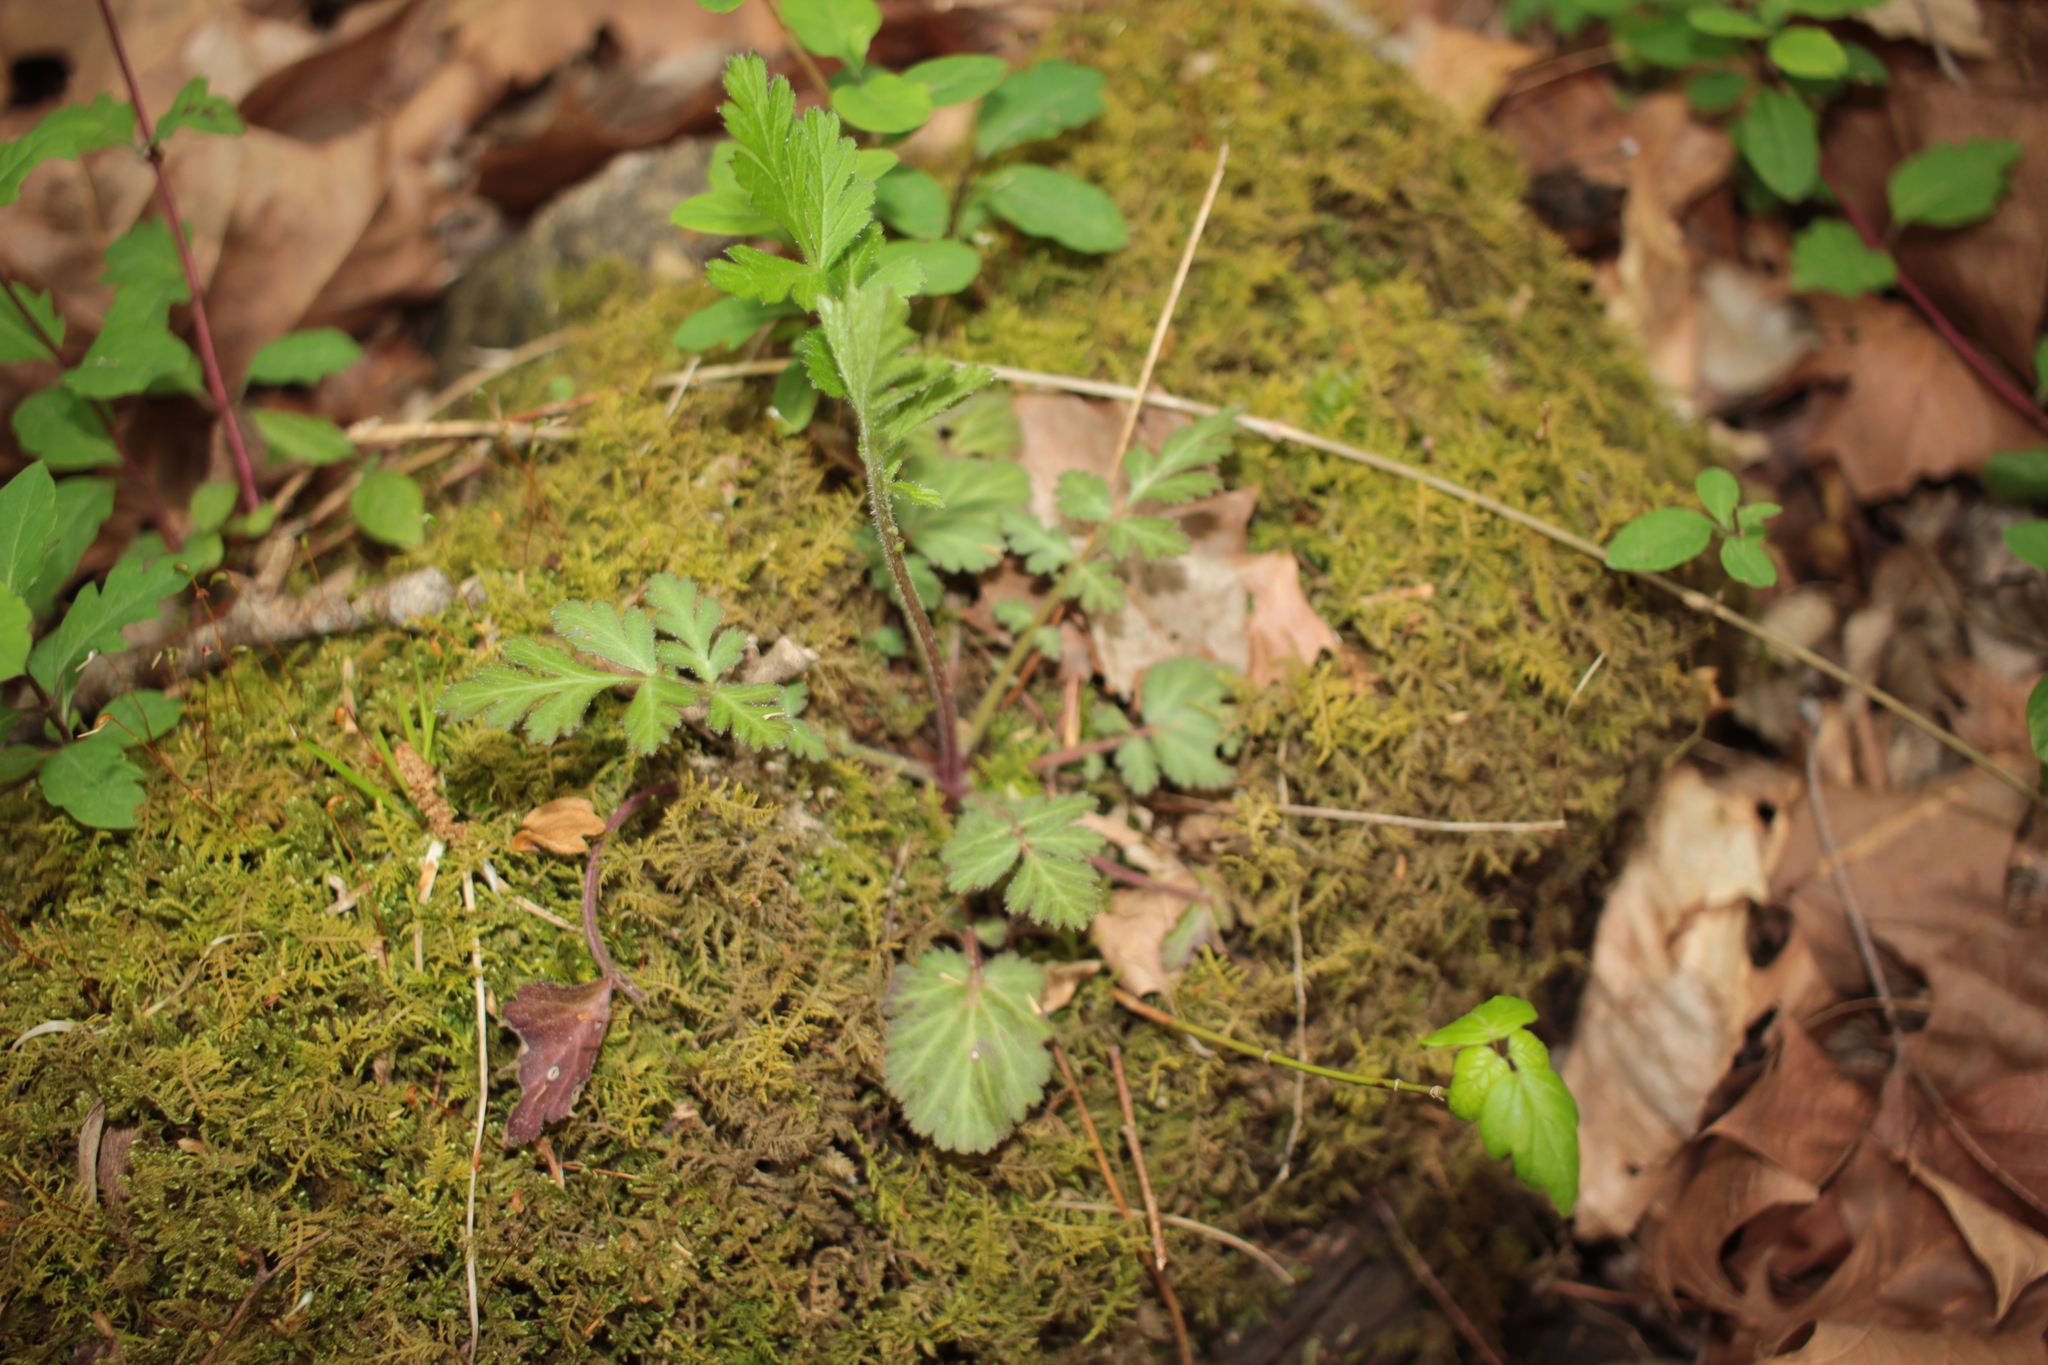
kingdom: Plantae
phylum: Tracheophyta
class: Magnoliopsida
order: Rosales
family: Rosaceae
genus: Geum
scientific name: Geum
